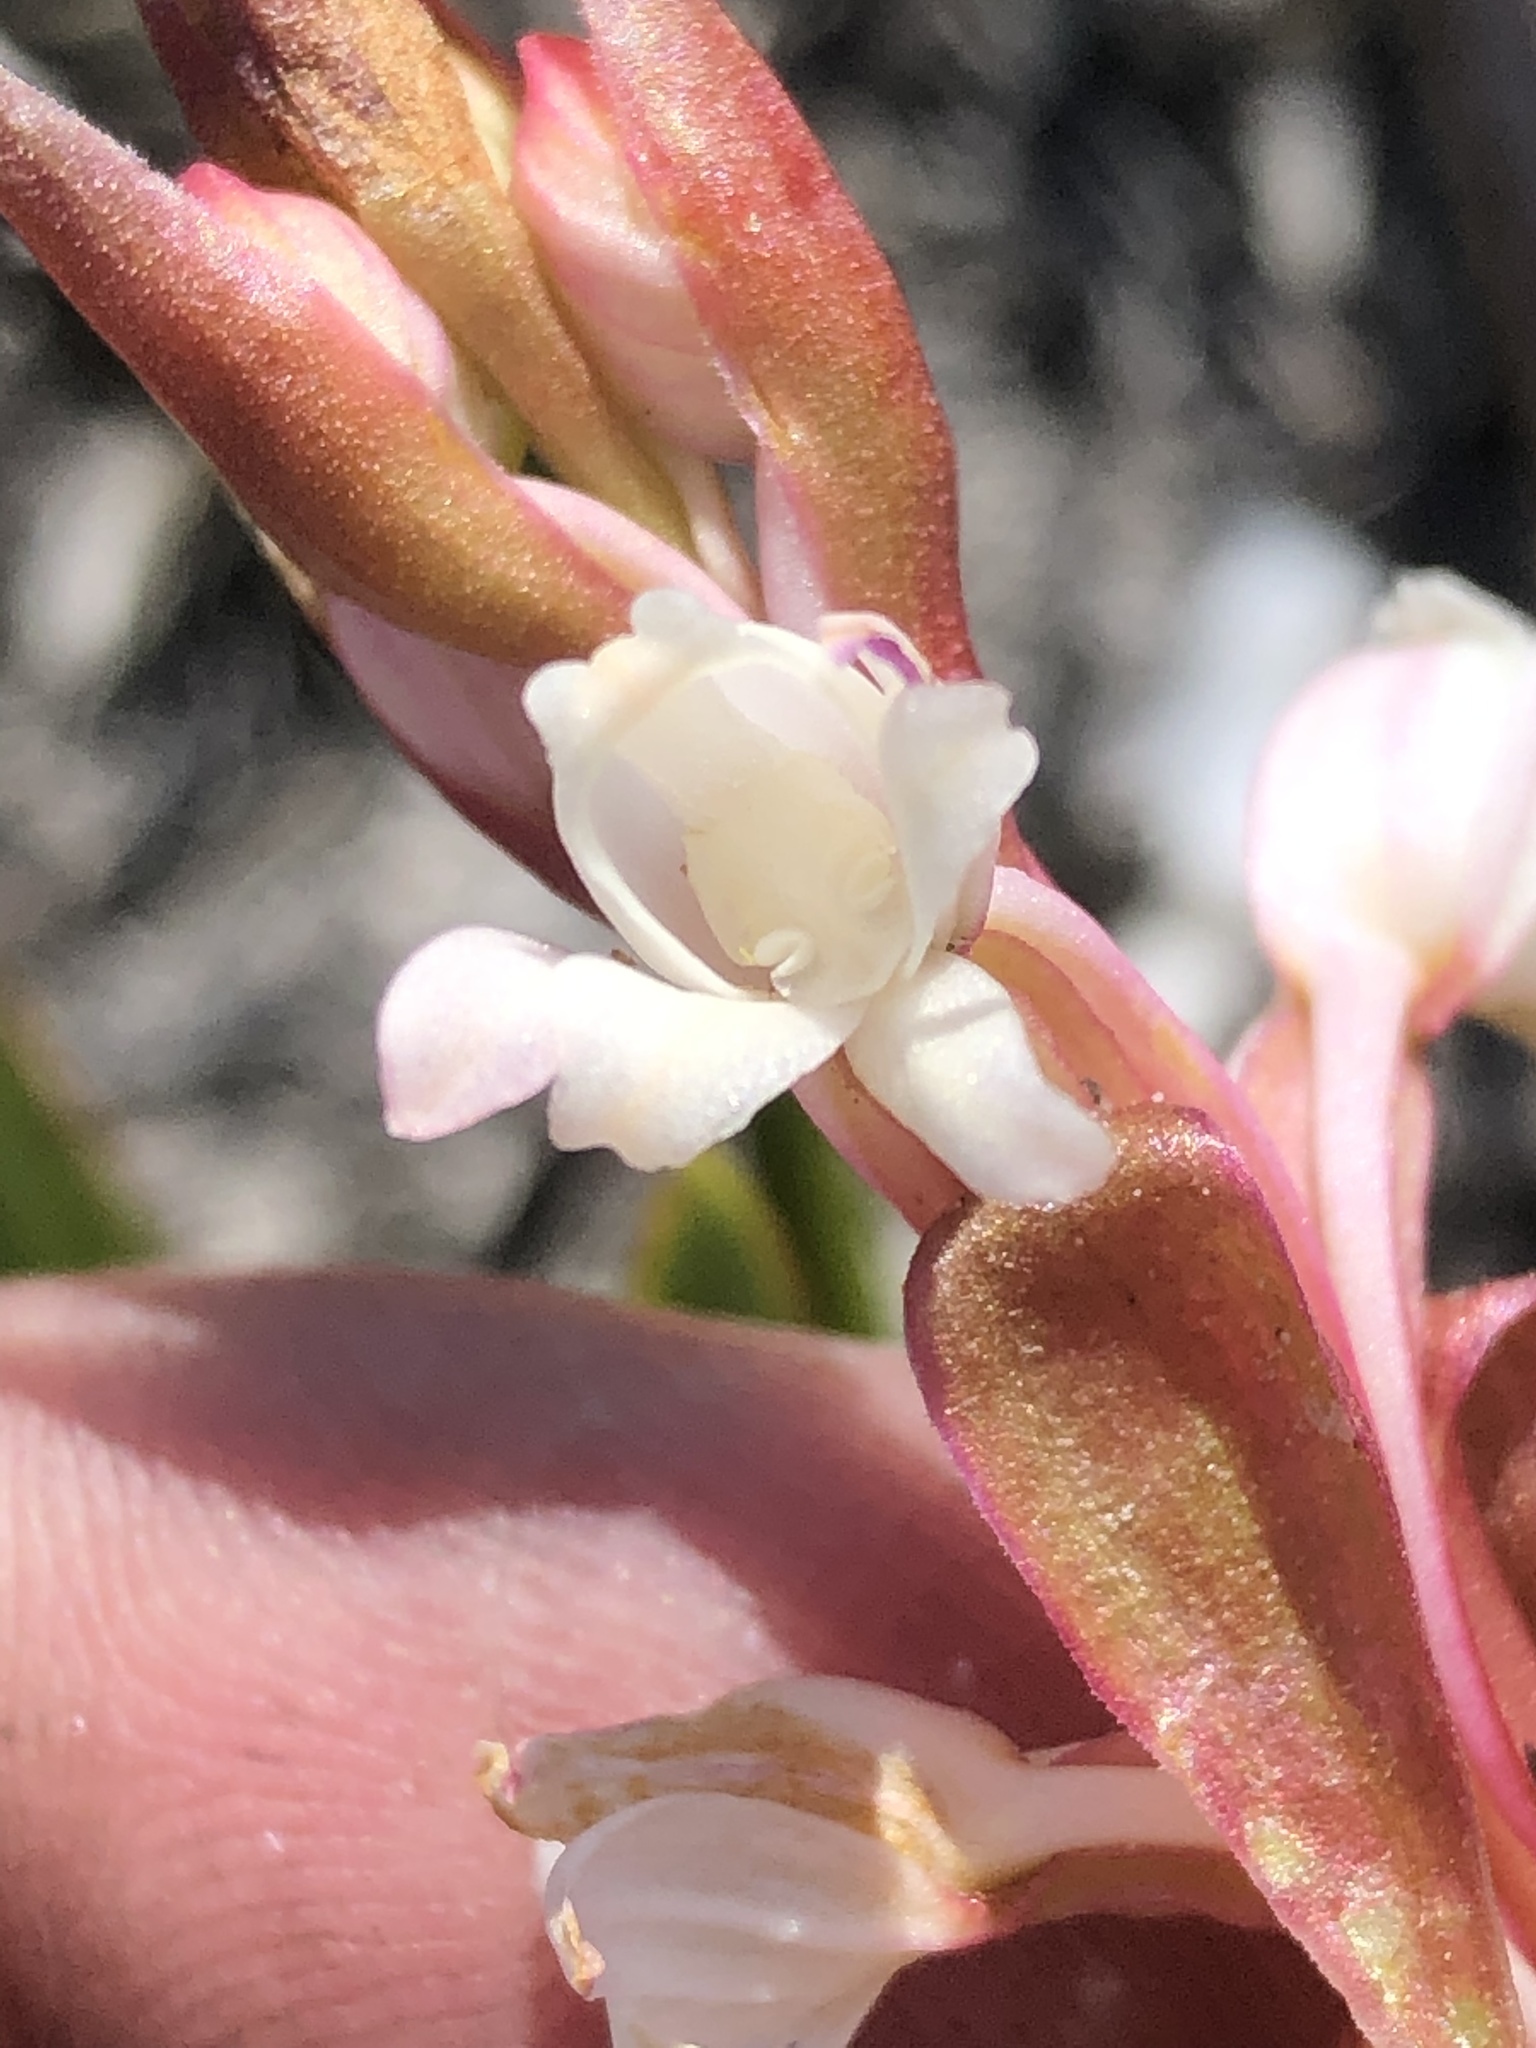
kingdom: Plantae
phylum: Tracheophyta
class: Liliopsida
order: Asparagales
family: Orchidaceae
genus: Satyrium
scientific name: Satyrium acuminatum
